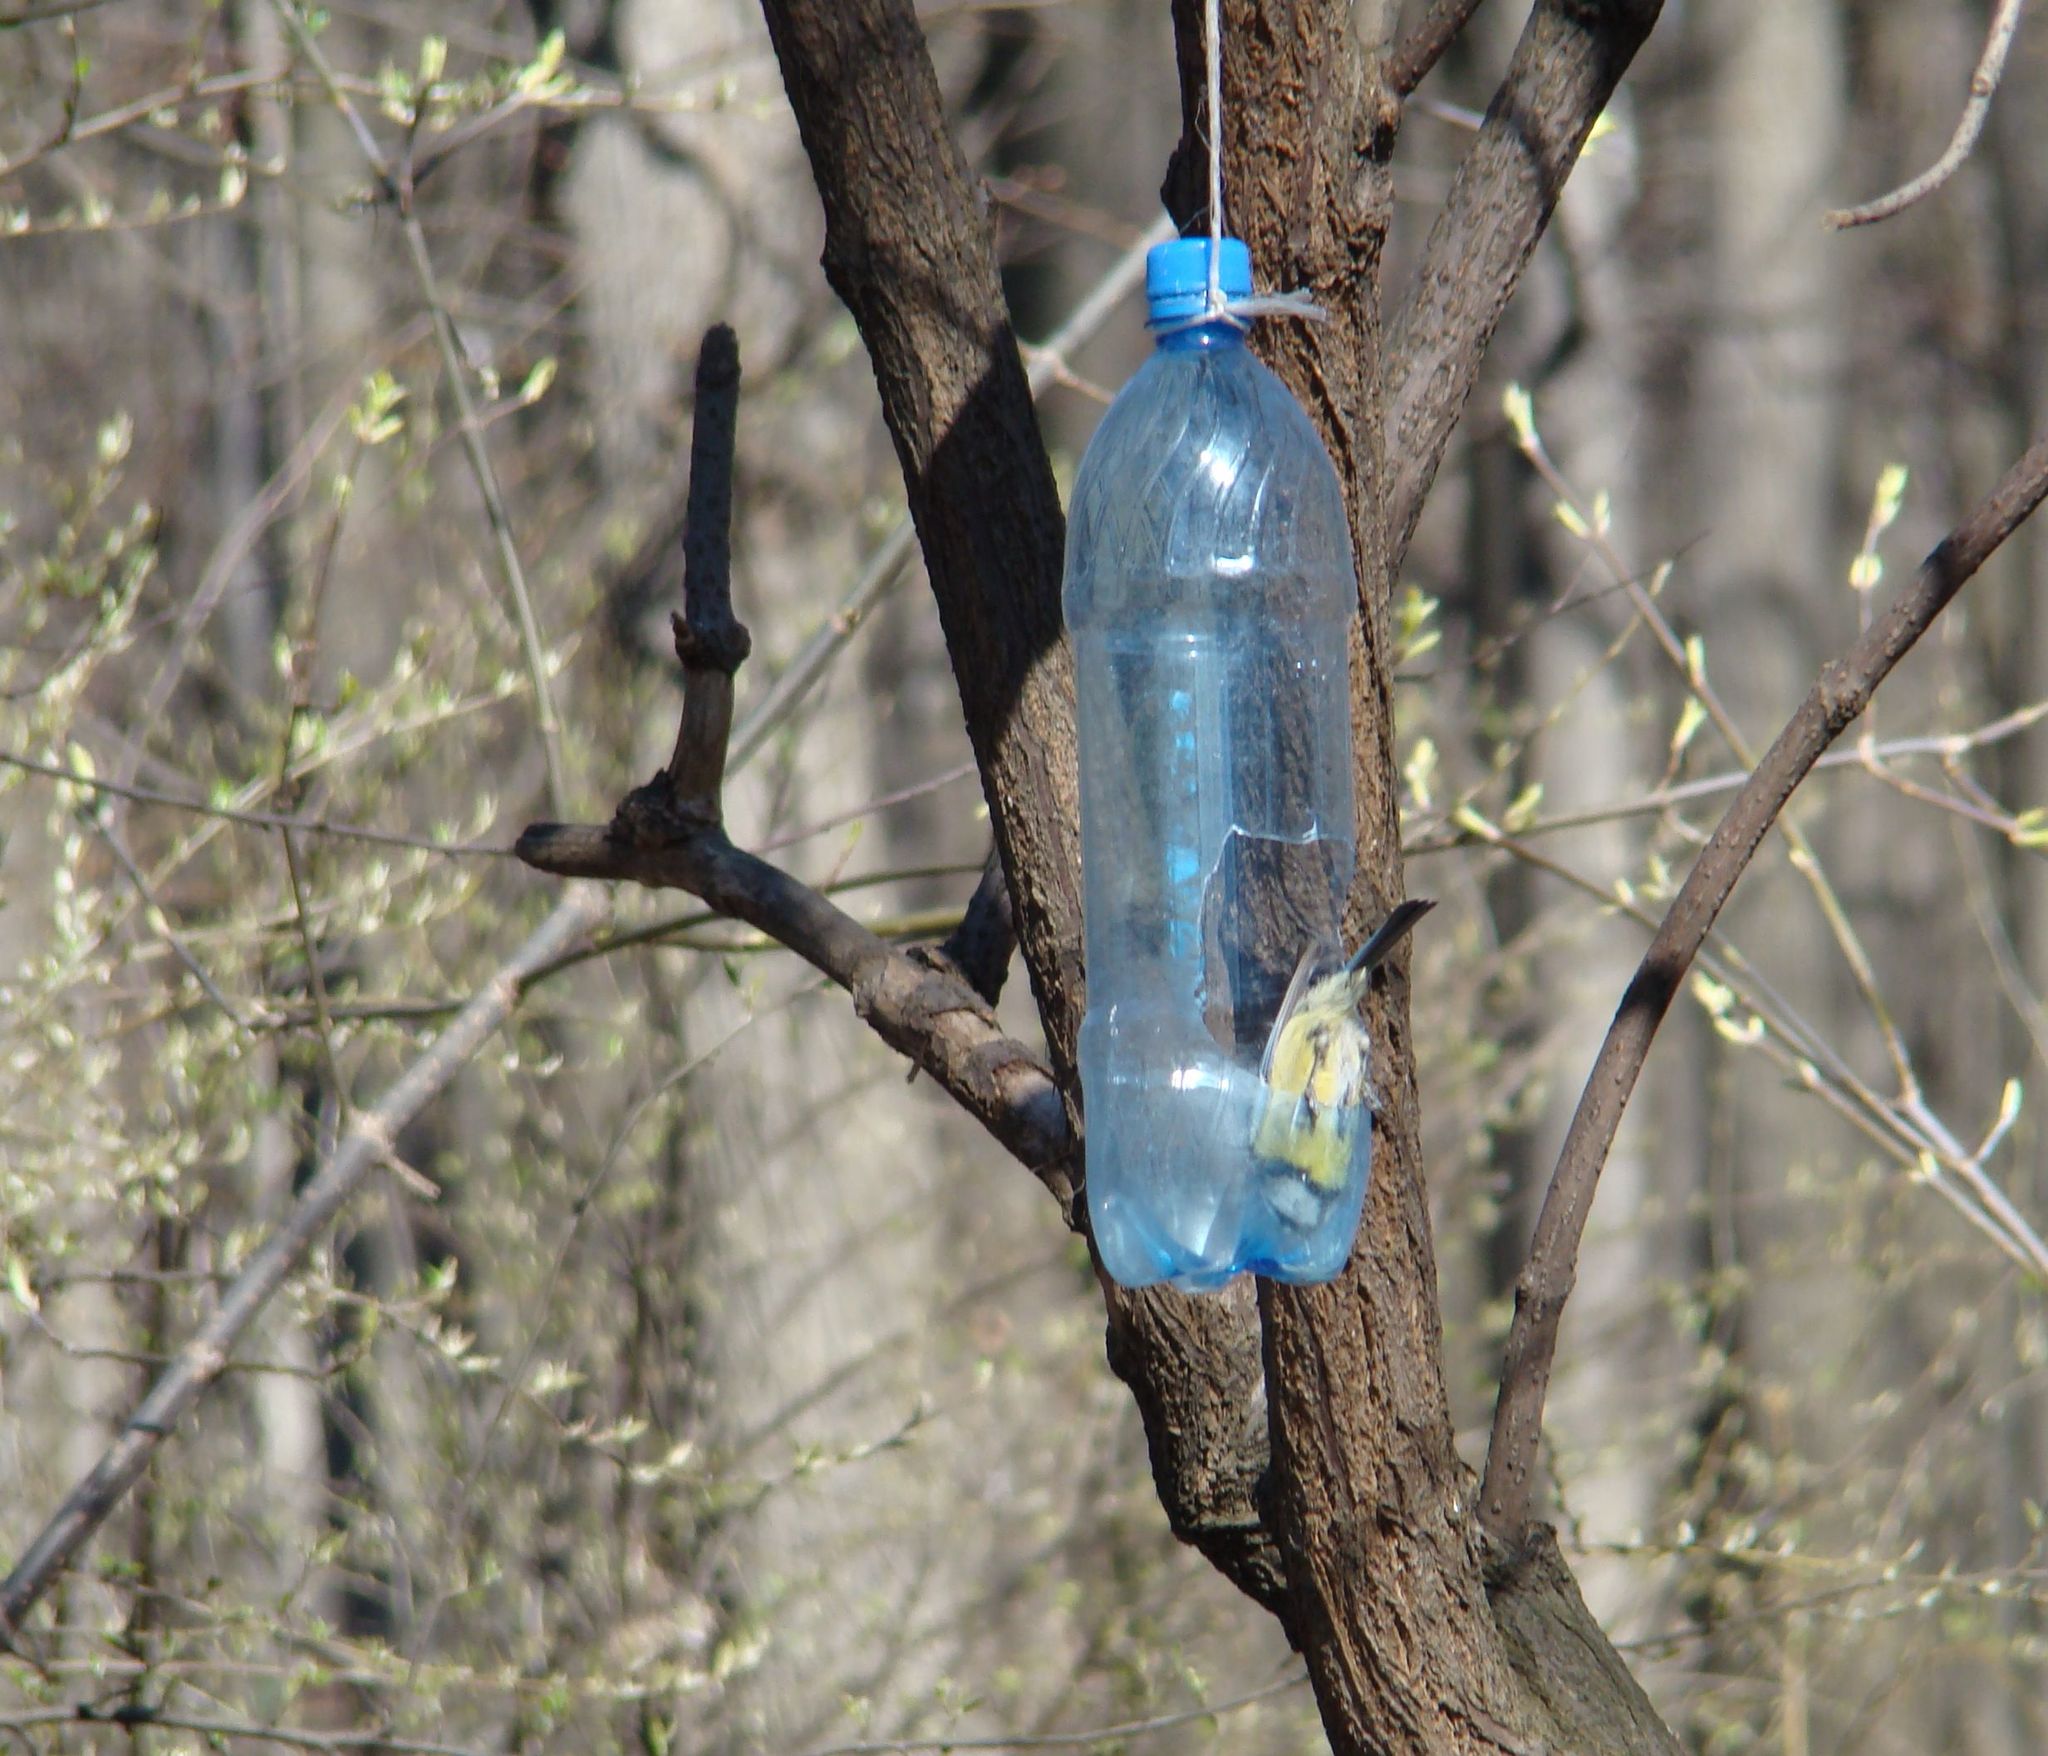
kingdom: Animalia
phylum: Chordata
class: Aves
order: Passeriformes
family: Paridae
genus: Cyanistes
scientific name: Cyanistes caeruleus
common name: Eurasian blue tit
